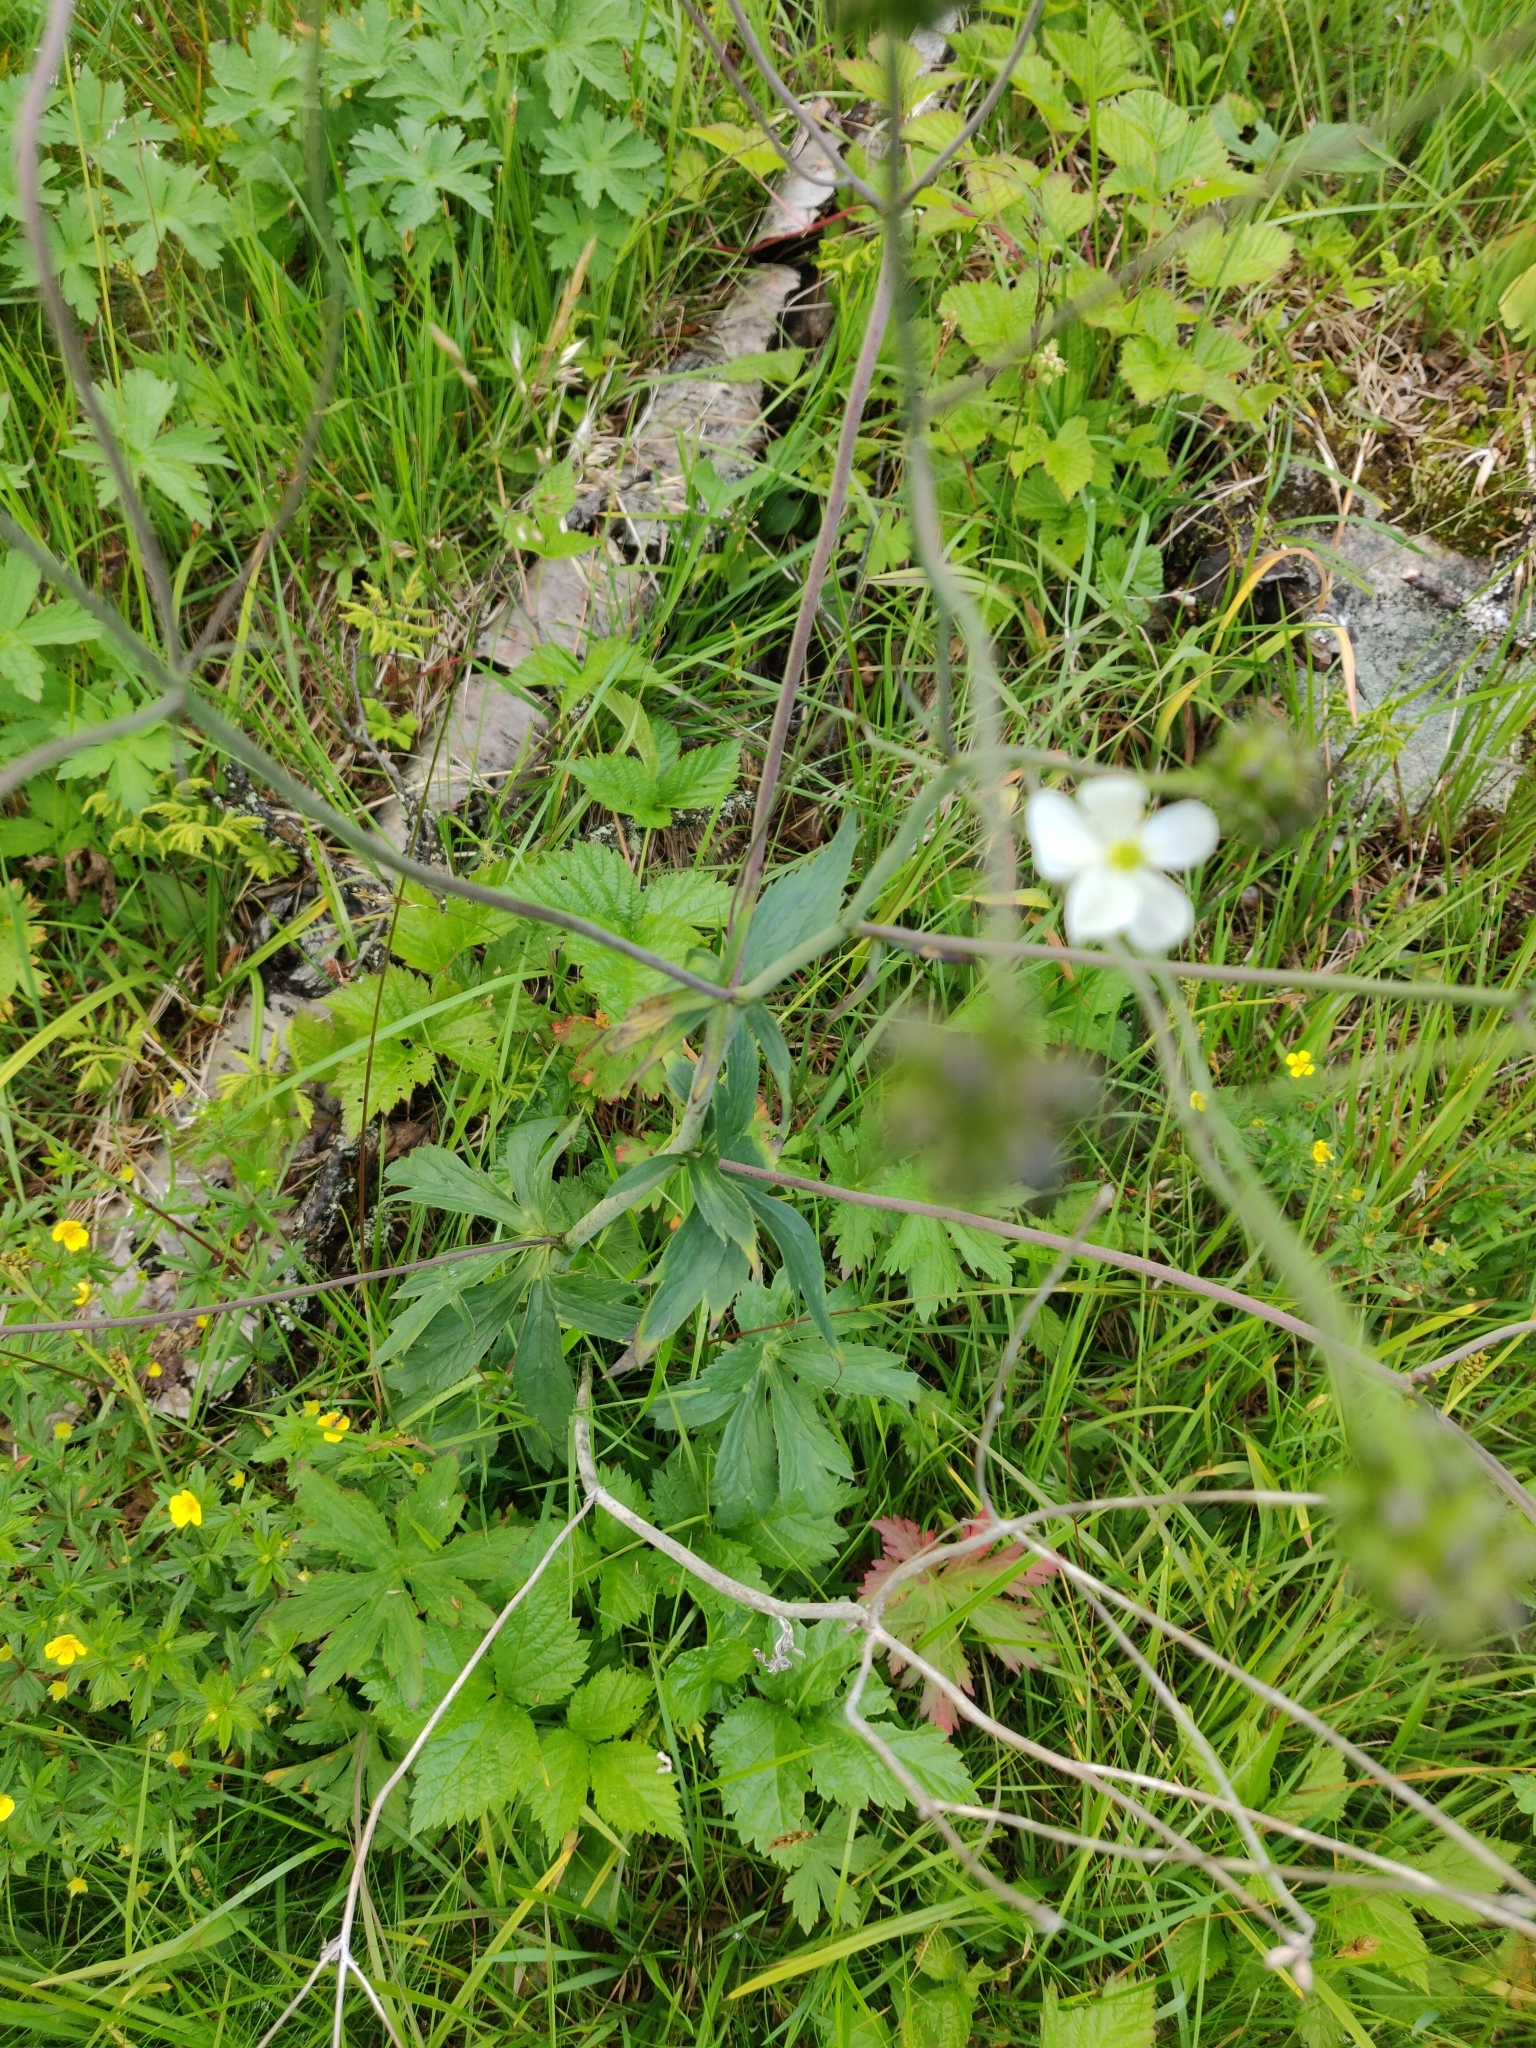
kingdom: Plantae
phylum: Tracheophyta
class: Magnoliopsida
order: Ranunculales
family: Ranunculaceae
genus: Ranunculus
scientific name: Ranunculus platanifolius
